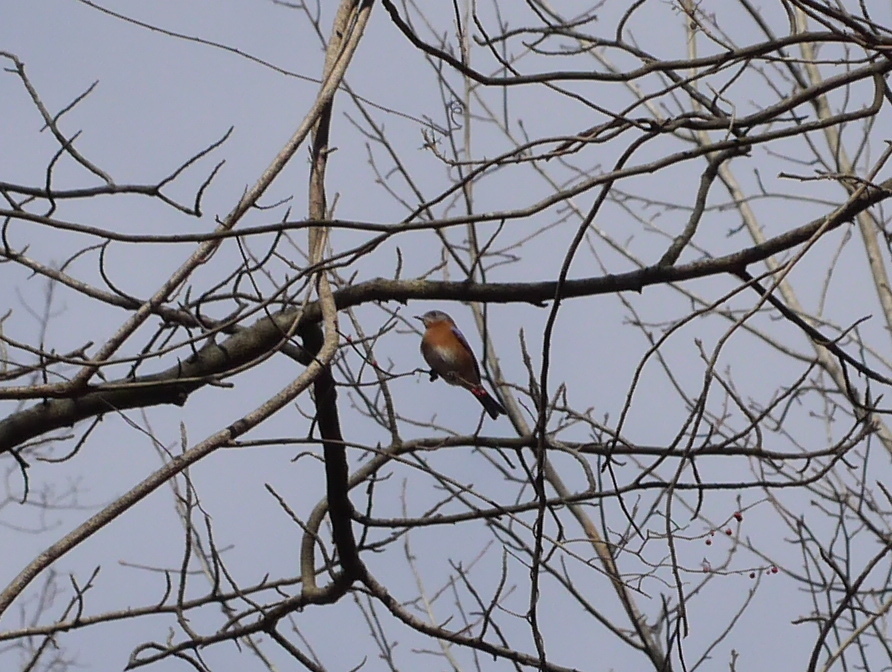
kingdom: Animalia
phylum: Chordata
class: Aves
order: Passeriformes
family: Turdidae
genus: Sialia
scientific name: Sialia sialis
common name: Eastern bluebird
